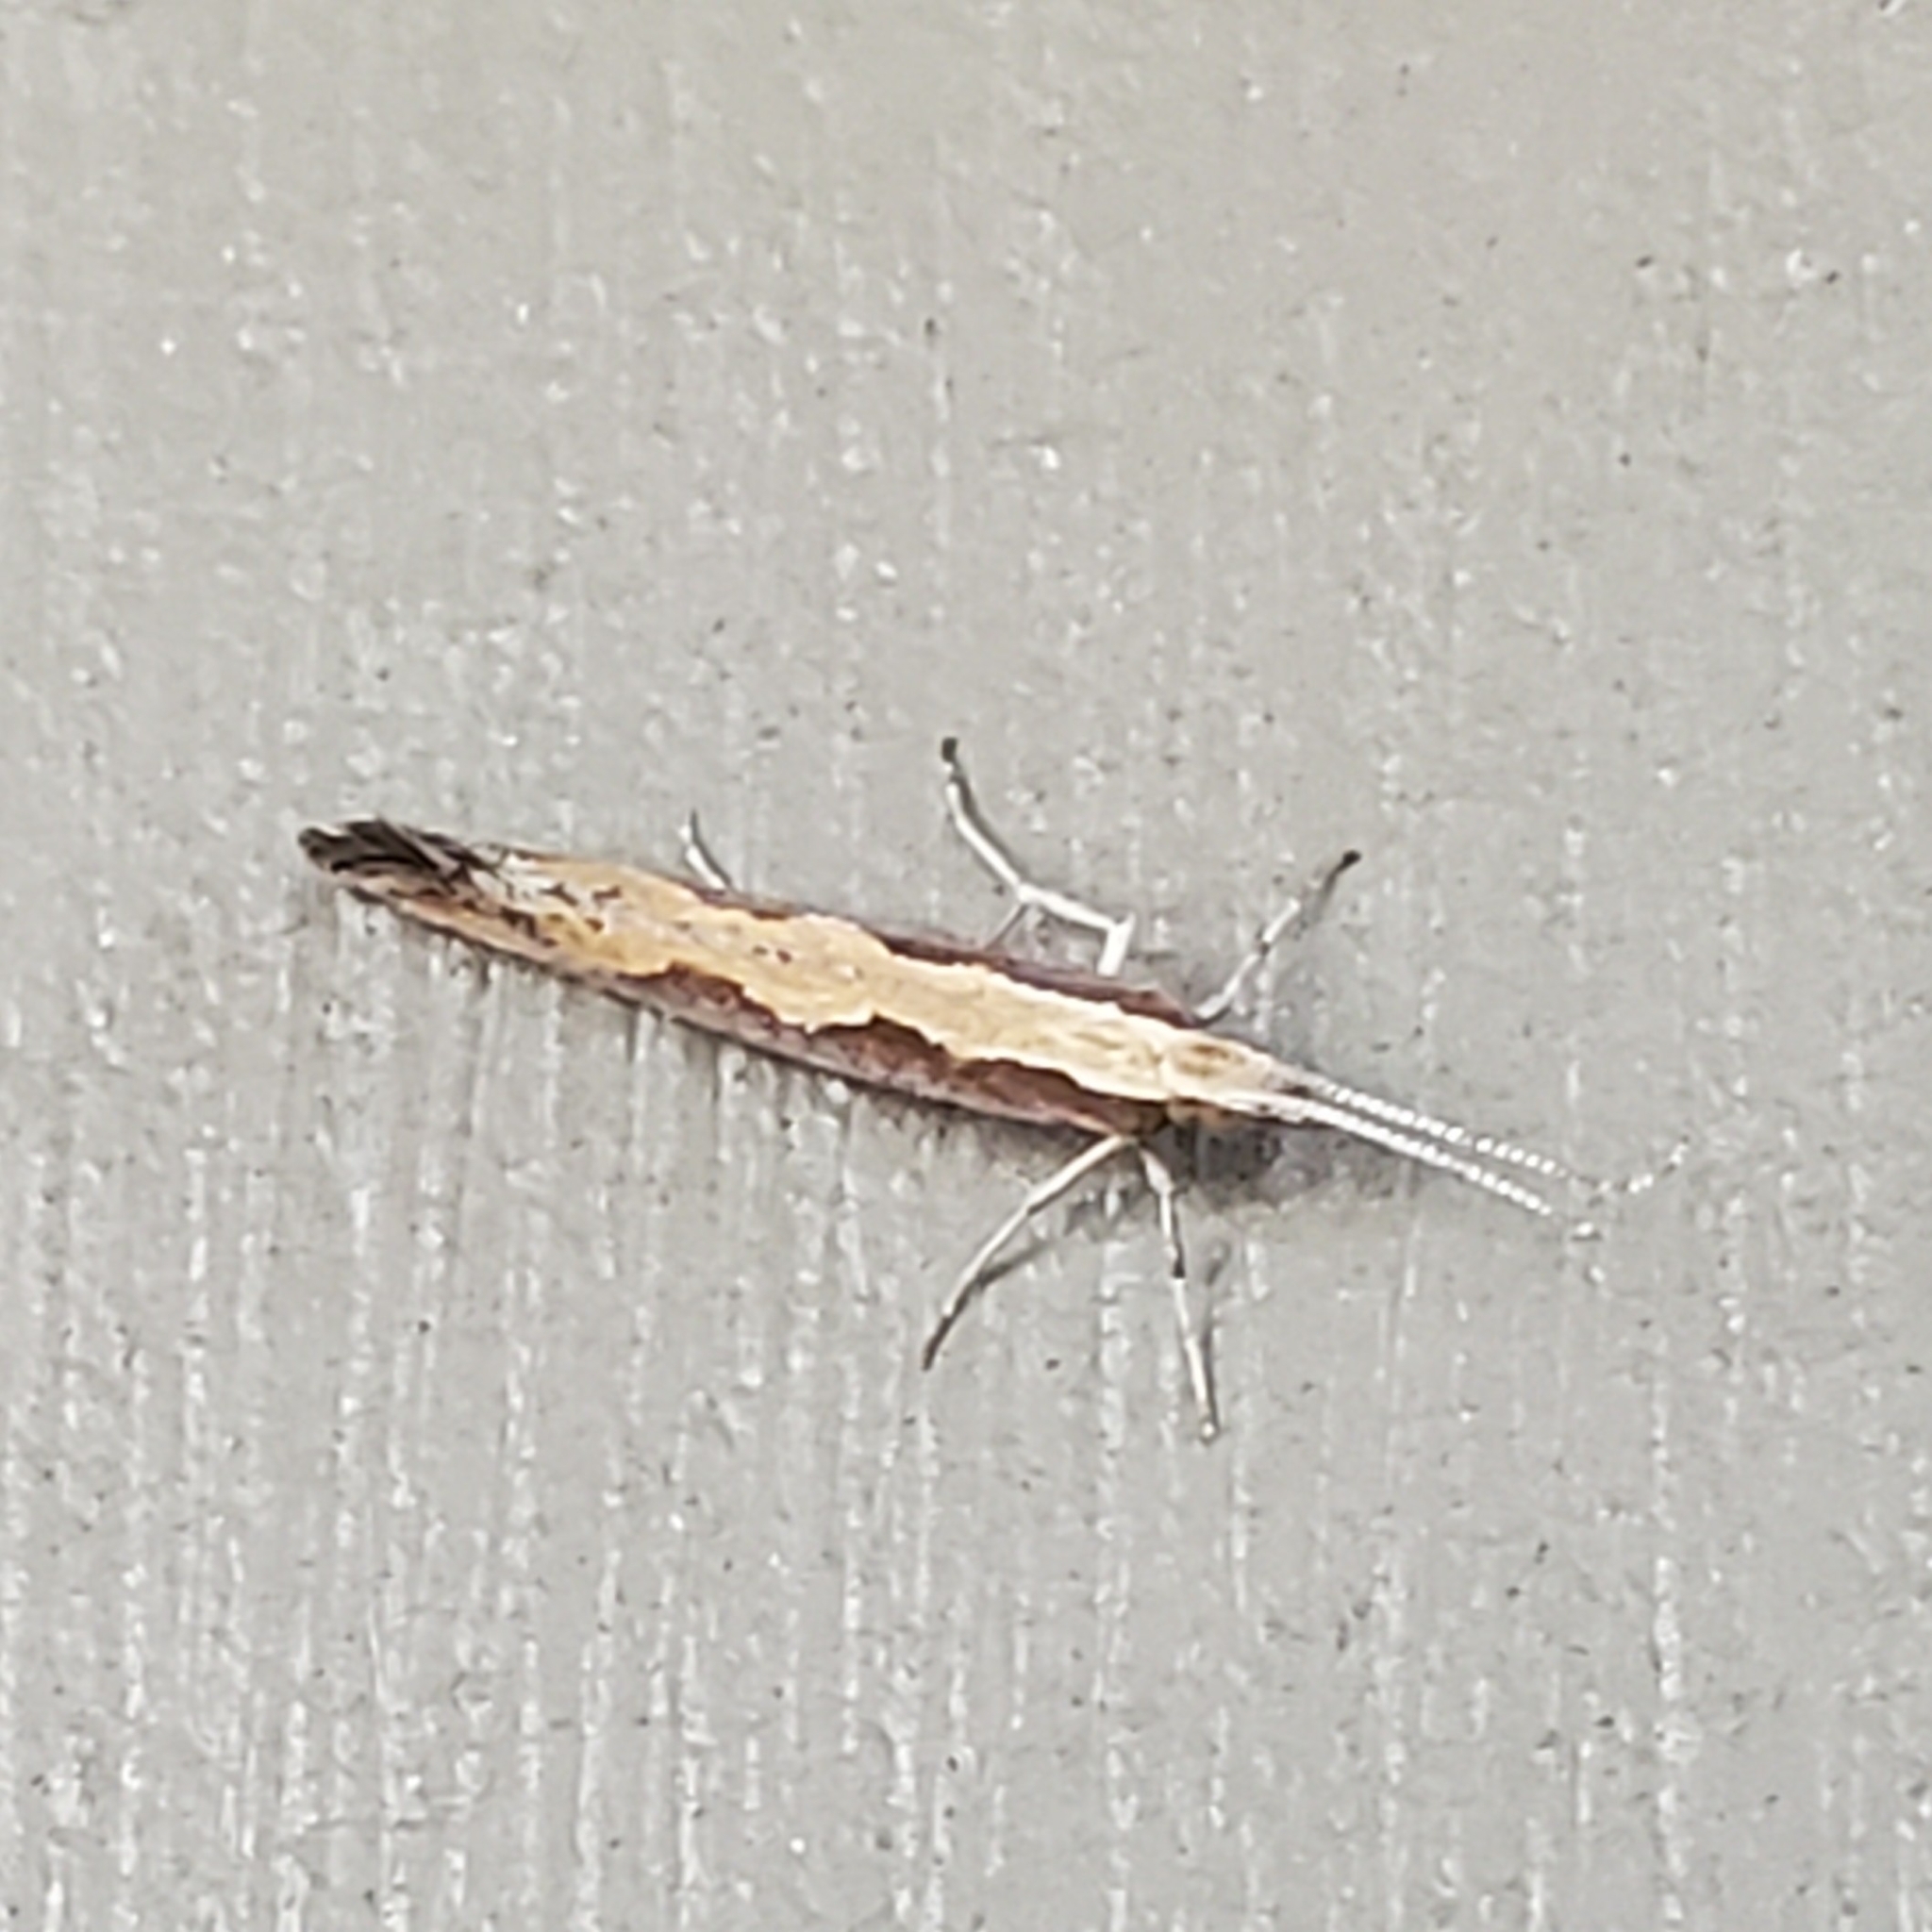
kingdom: Animalia
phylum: Arthropoda
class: Insecta
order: Lepidoptera
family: Plutellidae
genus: Plutella
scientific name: Plutella xylostella
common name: Diamond-back moth
